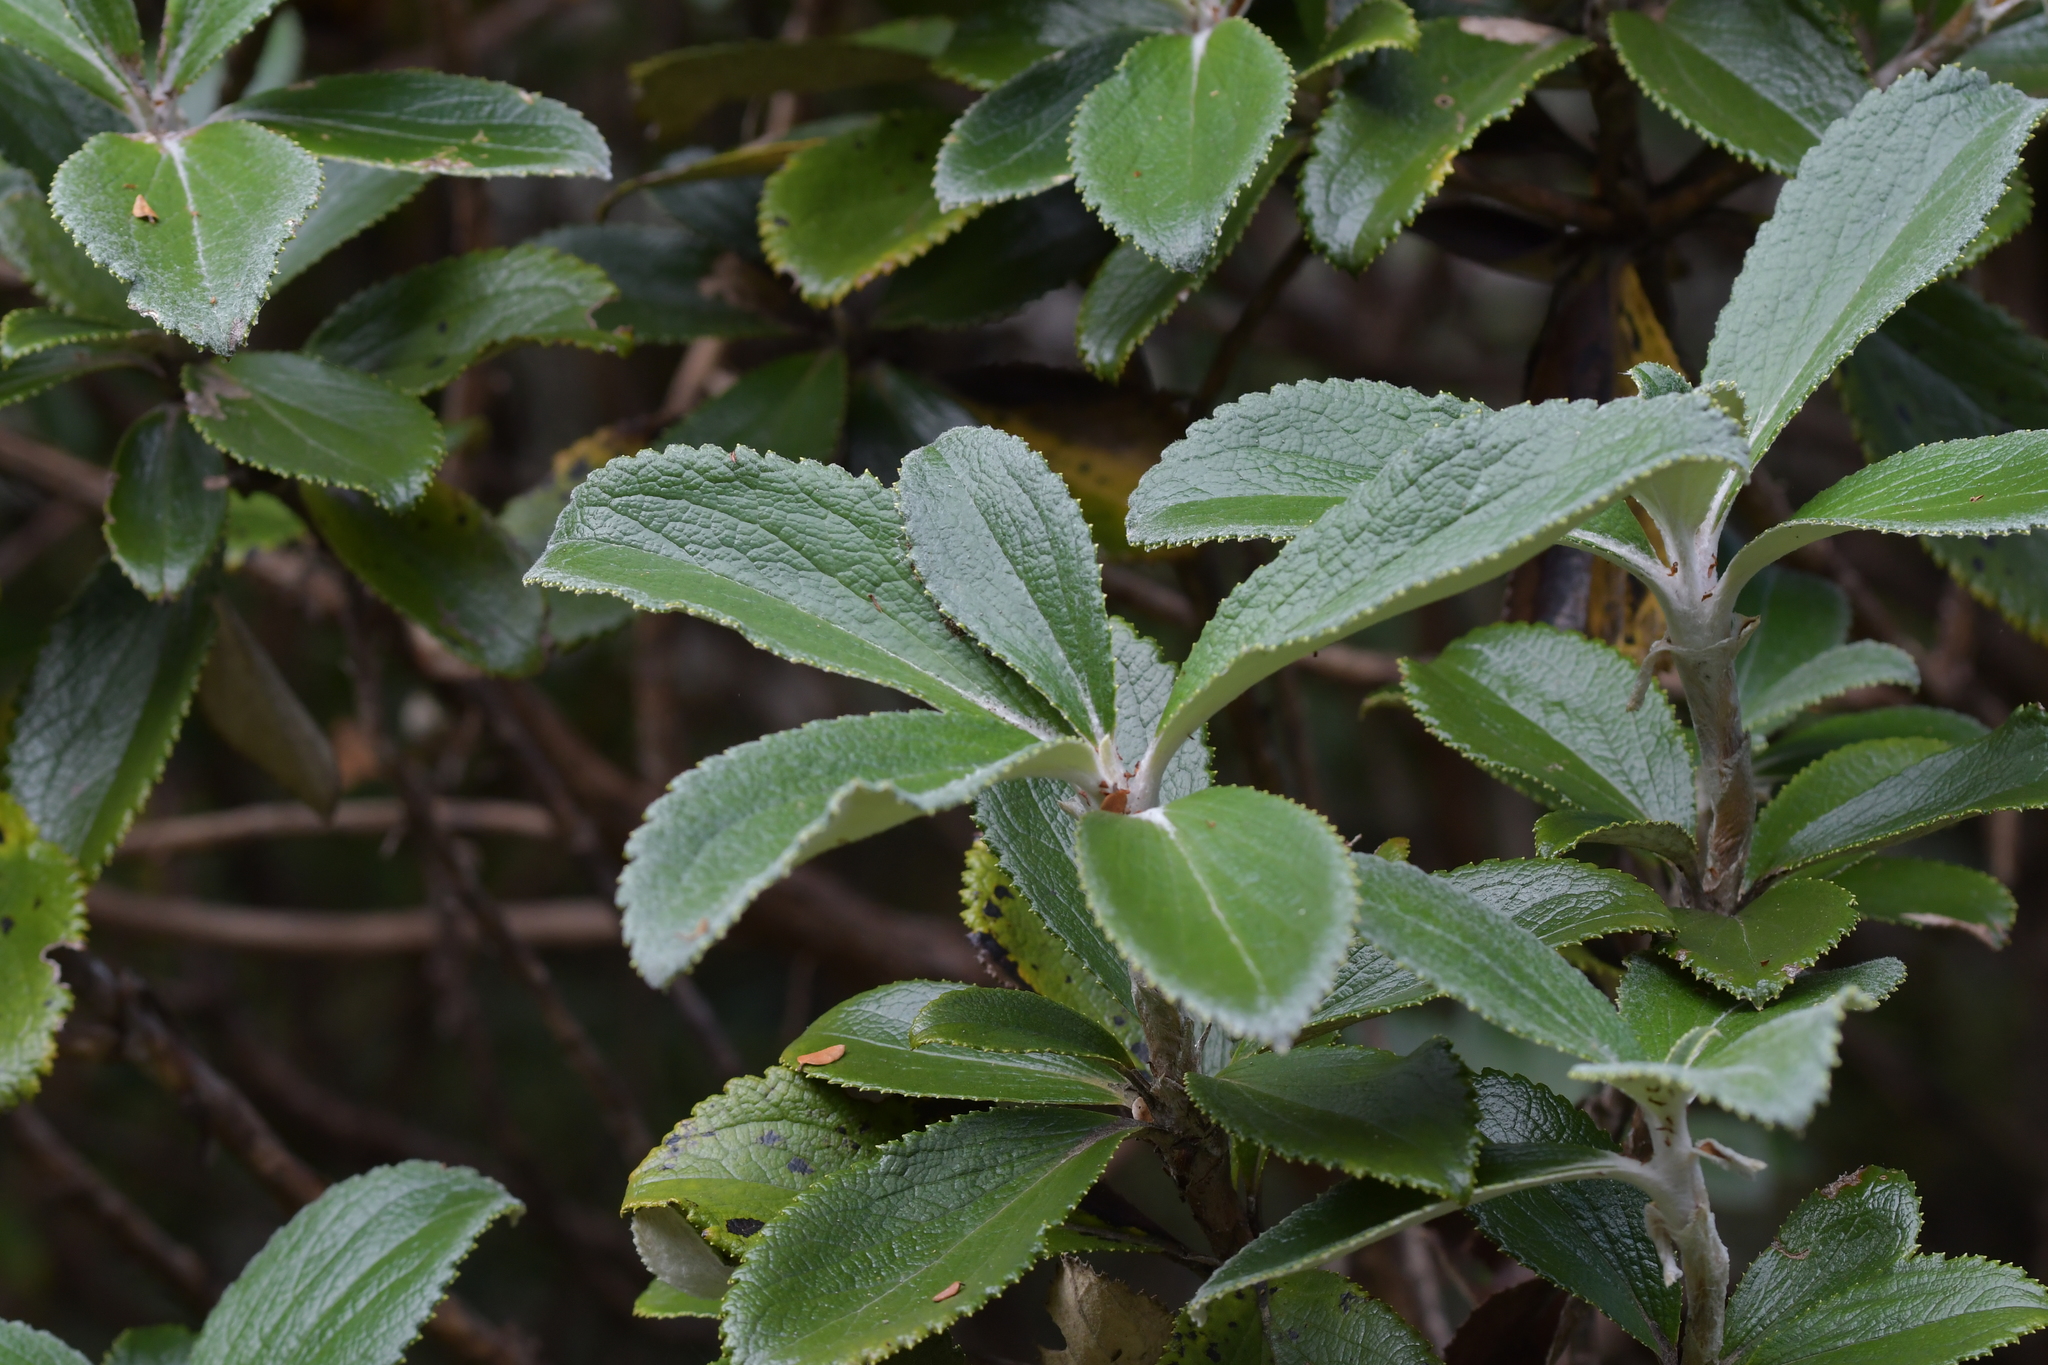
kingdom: Plantae
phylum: Tracheophyta
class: Magnoliopsida
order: Asterales
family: Asteraceae
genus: Macrolearia
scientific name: Macrolearia colensoi
